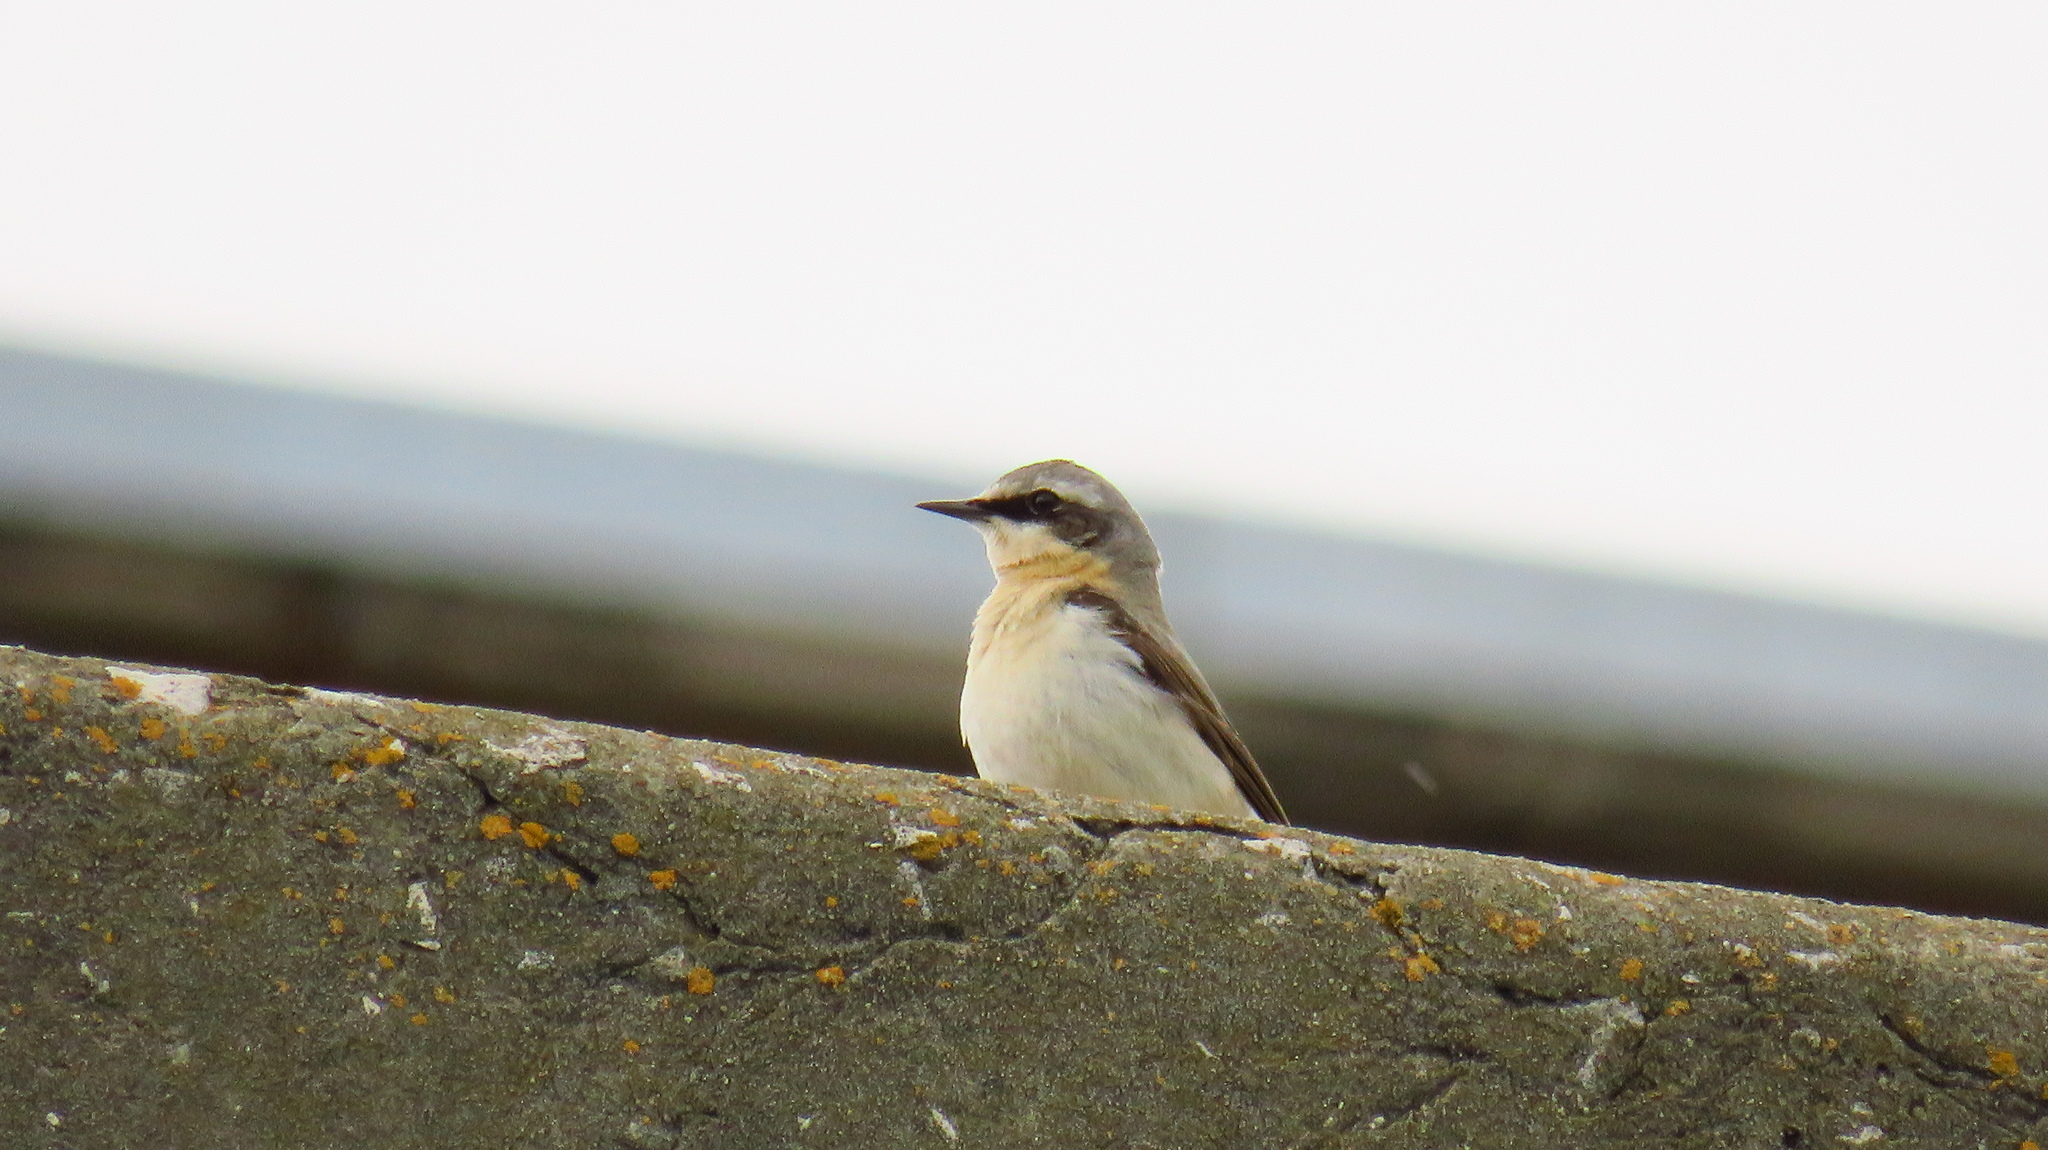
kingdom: Animalia
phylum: Chordata
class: Aves
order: Passeriformes
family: Muscicapidae
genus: Oenanthe
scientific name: Oenanthe oenanthe
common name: Northern wheatear
